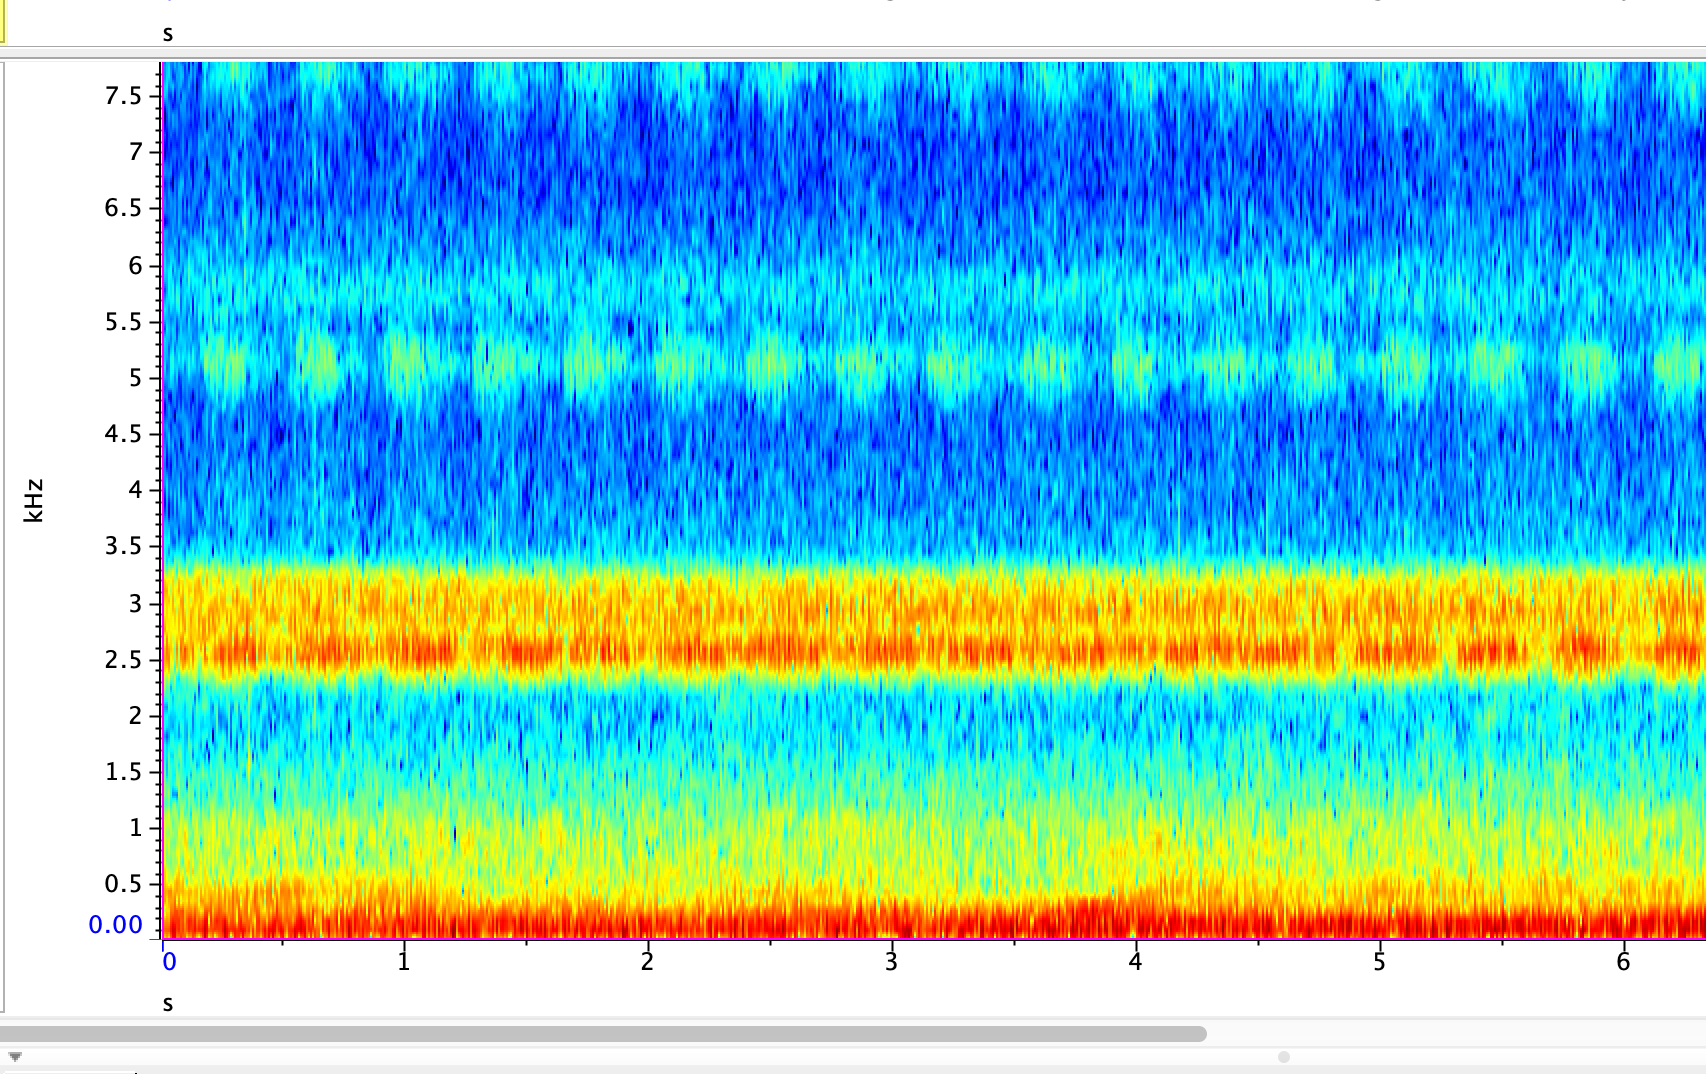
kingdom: Animalia
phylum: Arthropoda
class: Insecta
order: Orthoptera
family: Gryllidae
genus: Oecanthus
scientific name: Oecanthus fultoni
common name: Snowy tree cricket
